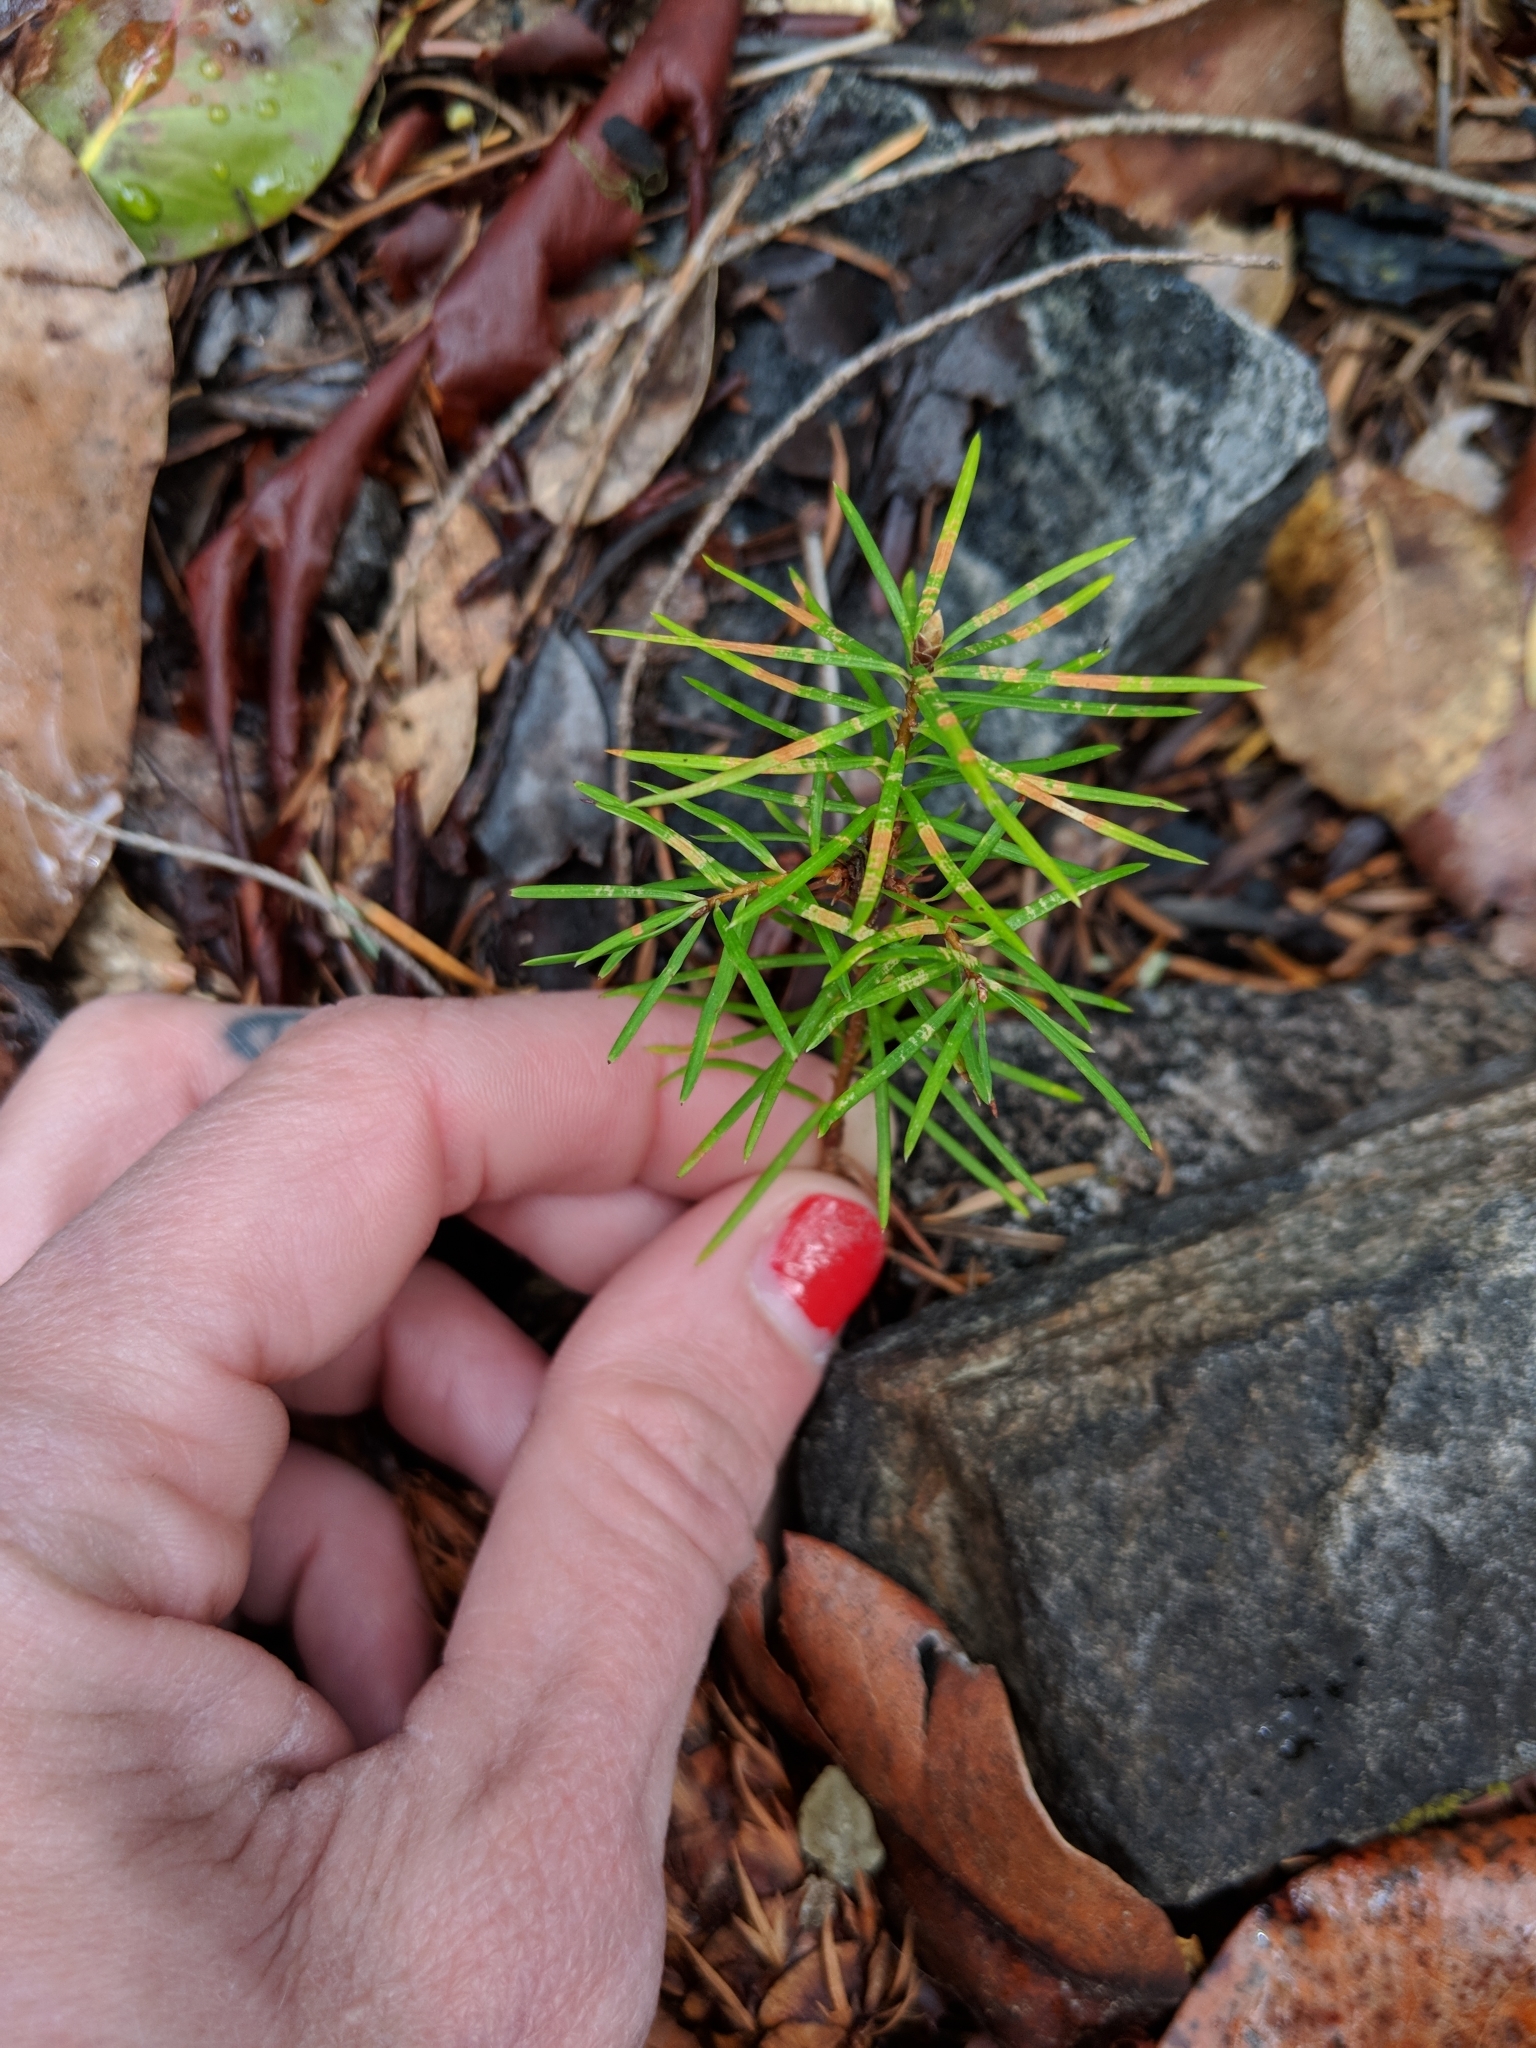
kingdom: Plantae
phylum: Tracheophyta
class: Pinopsida
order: Pinales
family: Pinaceae
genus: Pseudotsuga
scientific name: Pseudotsuga menziesii
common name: Douglas fir
